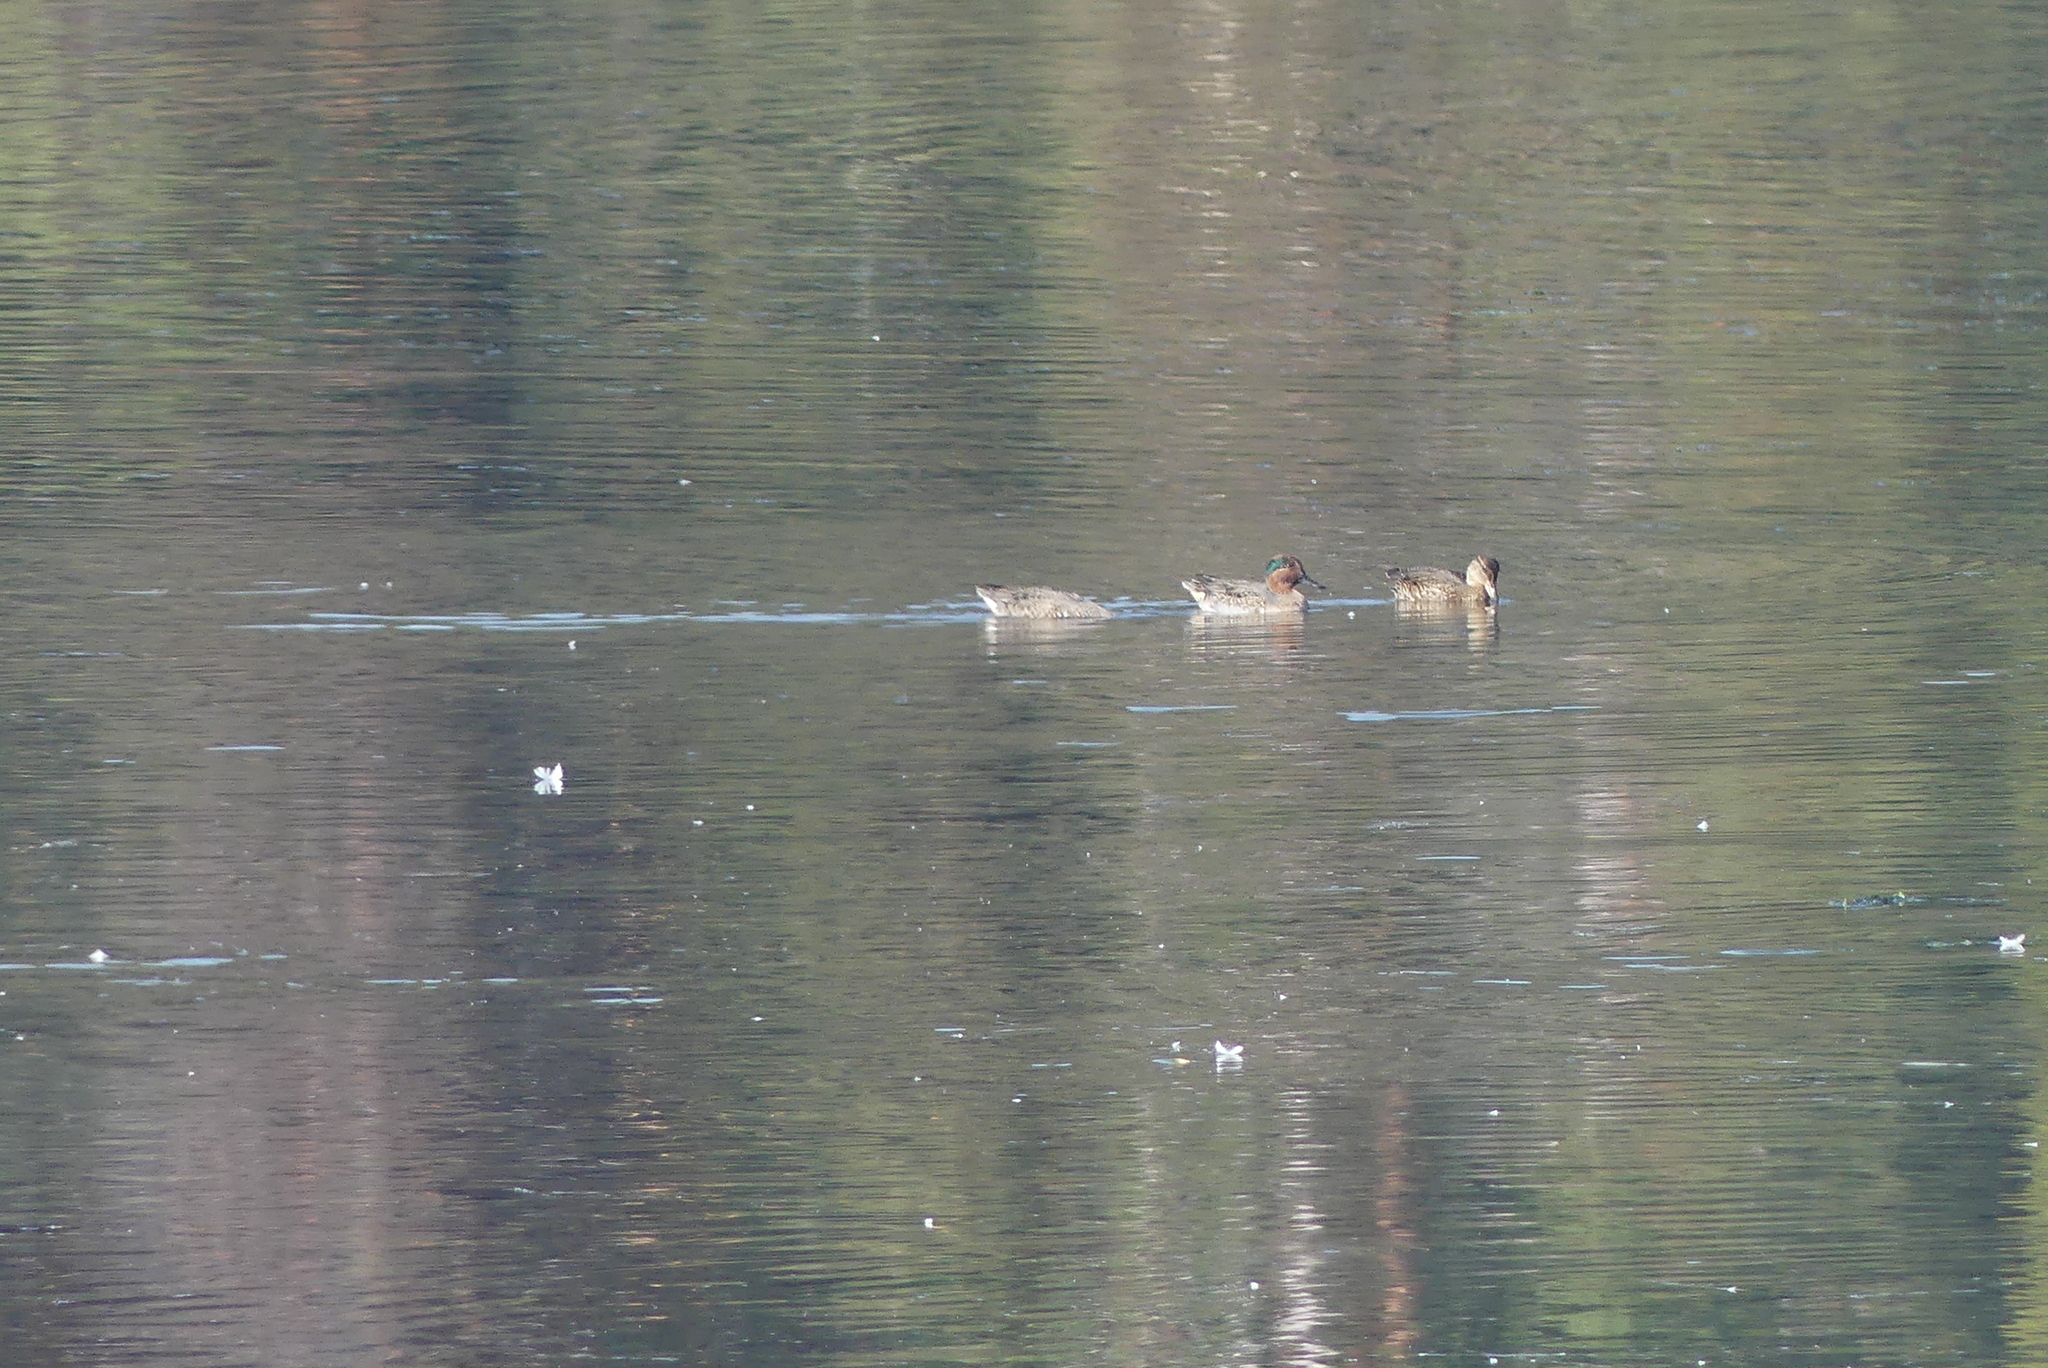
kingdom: Animalia
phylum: Chordata
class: Aves
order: Anseriformes
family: Anatidae
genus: Anas
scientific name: Anas crecca
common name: Eurasian teal
